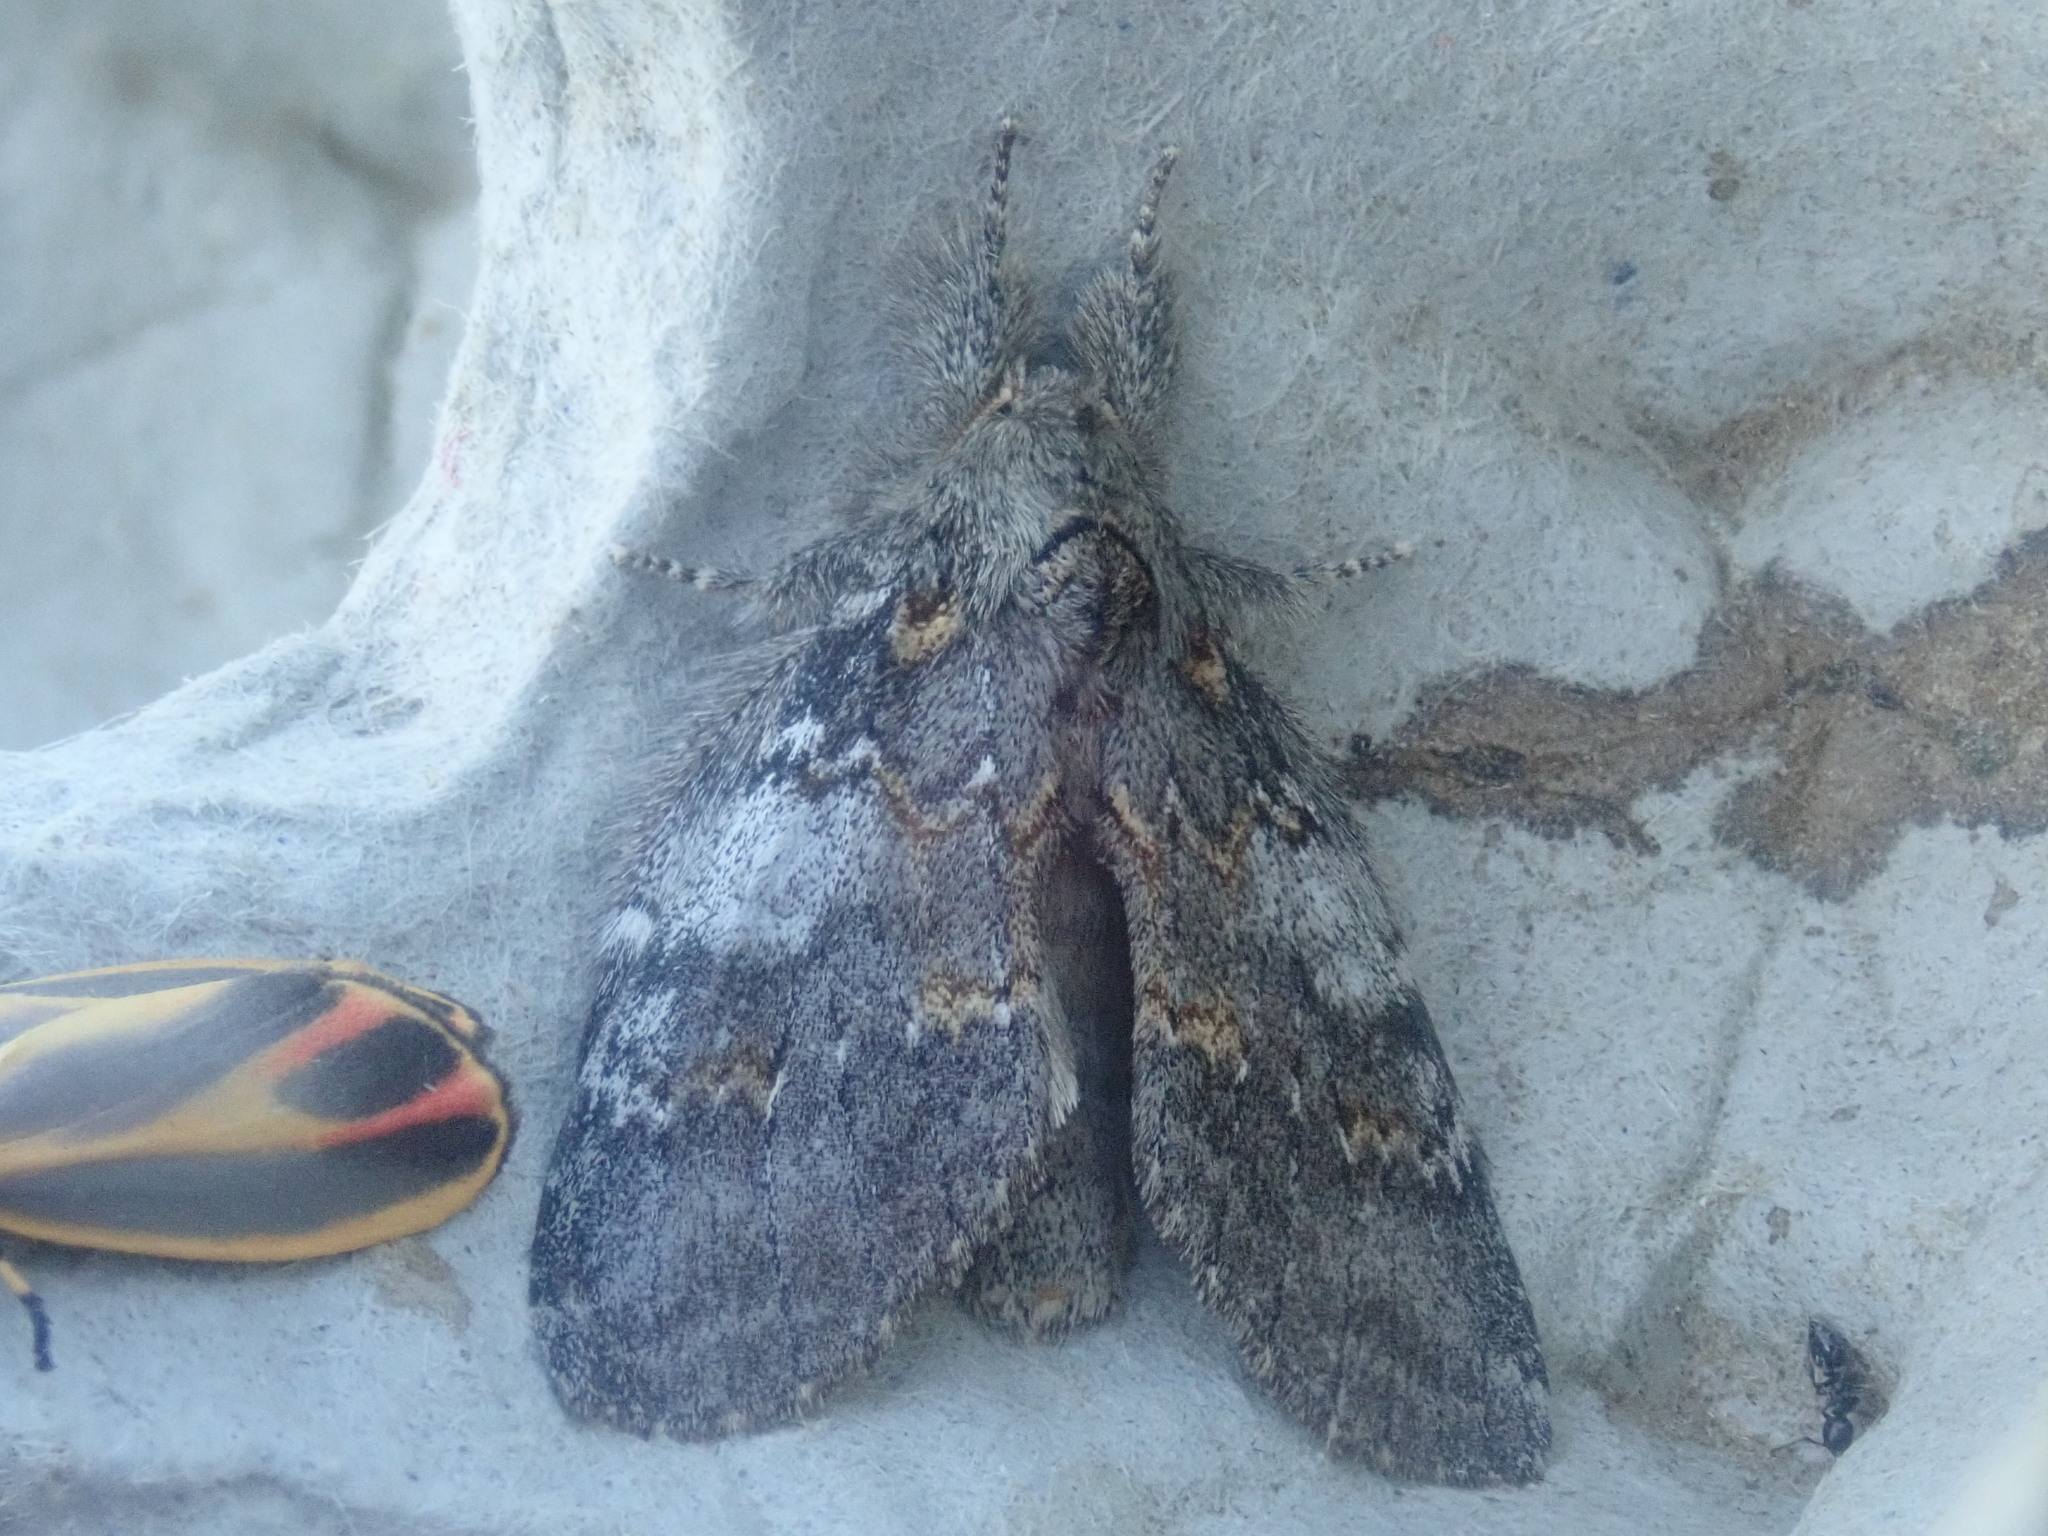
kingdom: Animalia
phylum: Arthropoda
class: Insecta
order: Lepidoptera
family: Notodontidae
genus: Peridea
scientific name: Peridea angulosa
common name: Angulose prominent
